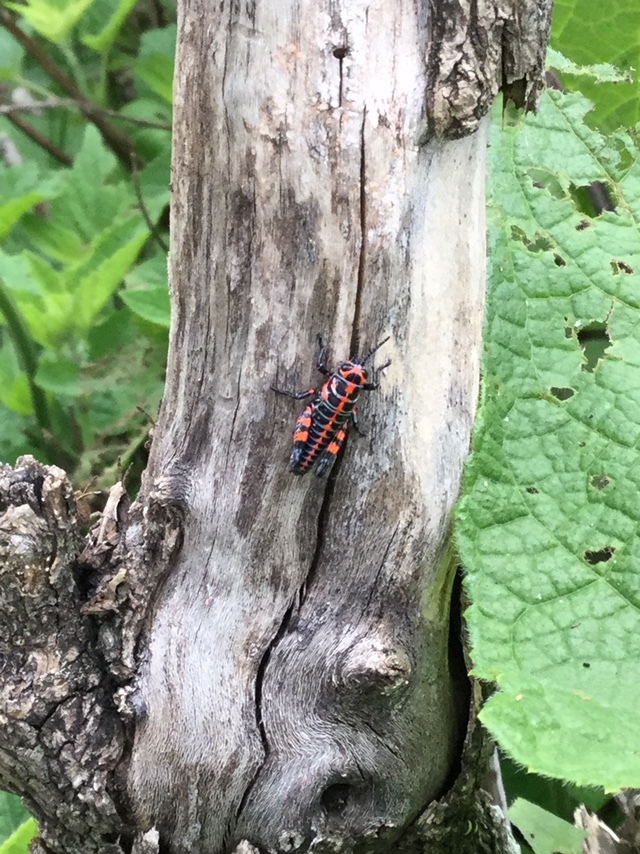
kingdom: Animalia
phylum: Arthropoda
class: Insecta
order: Orthoptera
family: Acrididae
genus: Dactylotum
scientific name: Dactylotum bicolor
